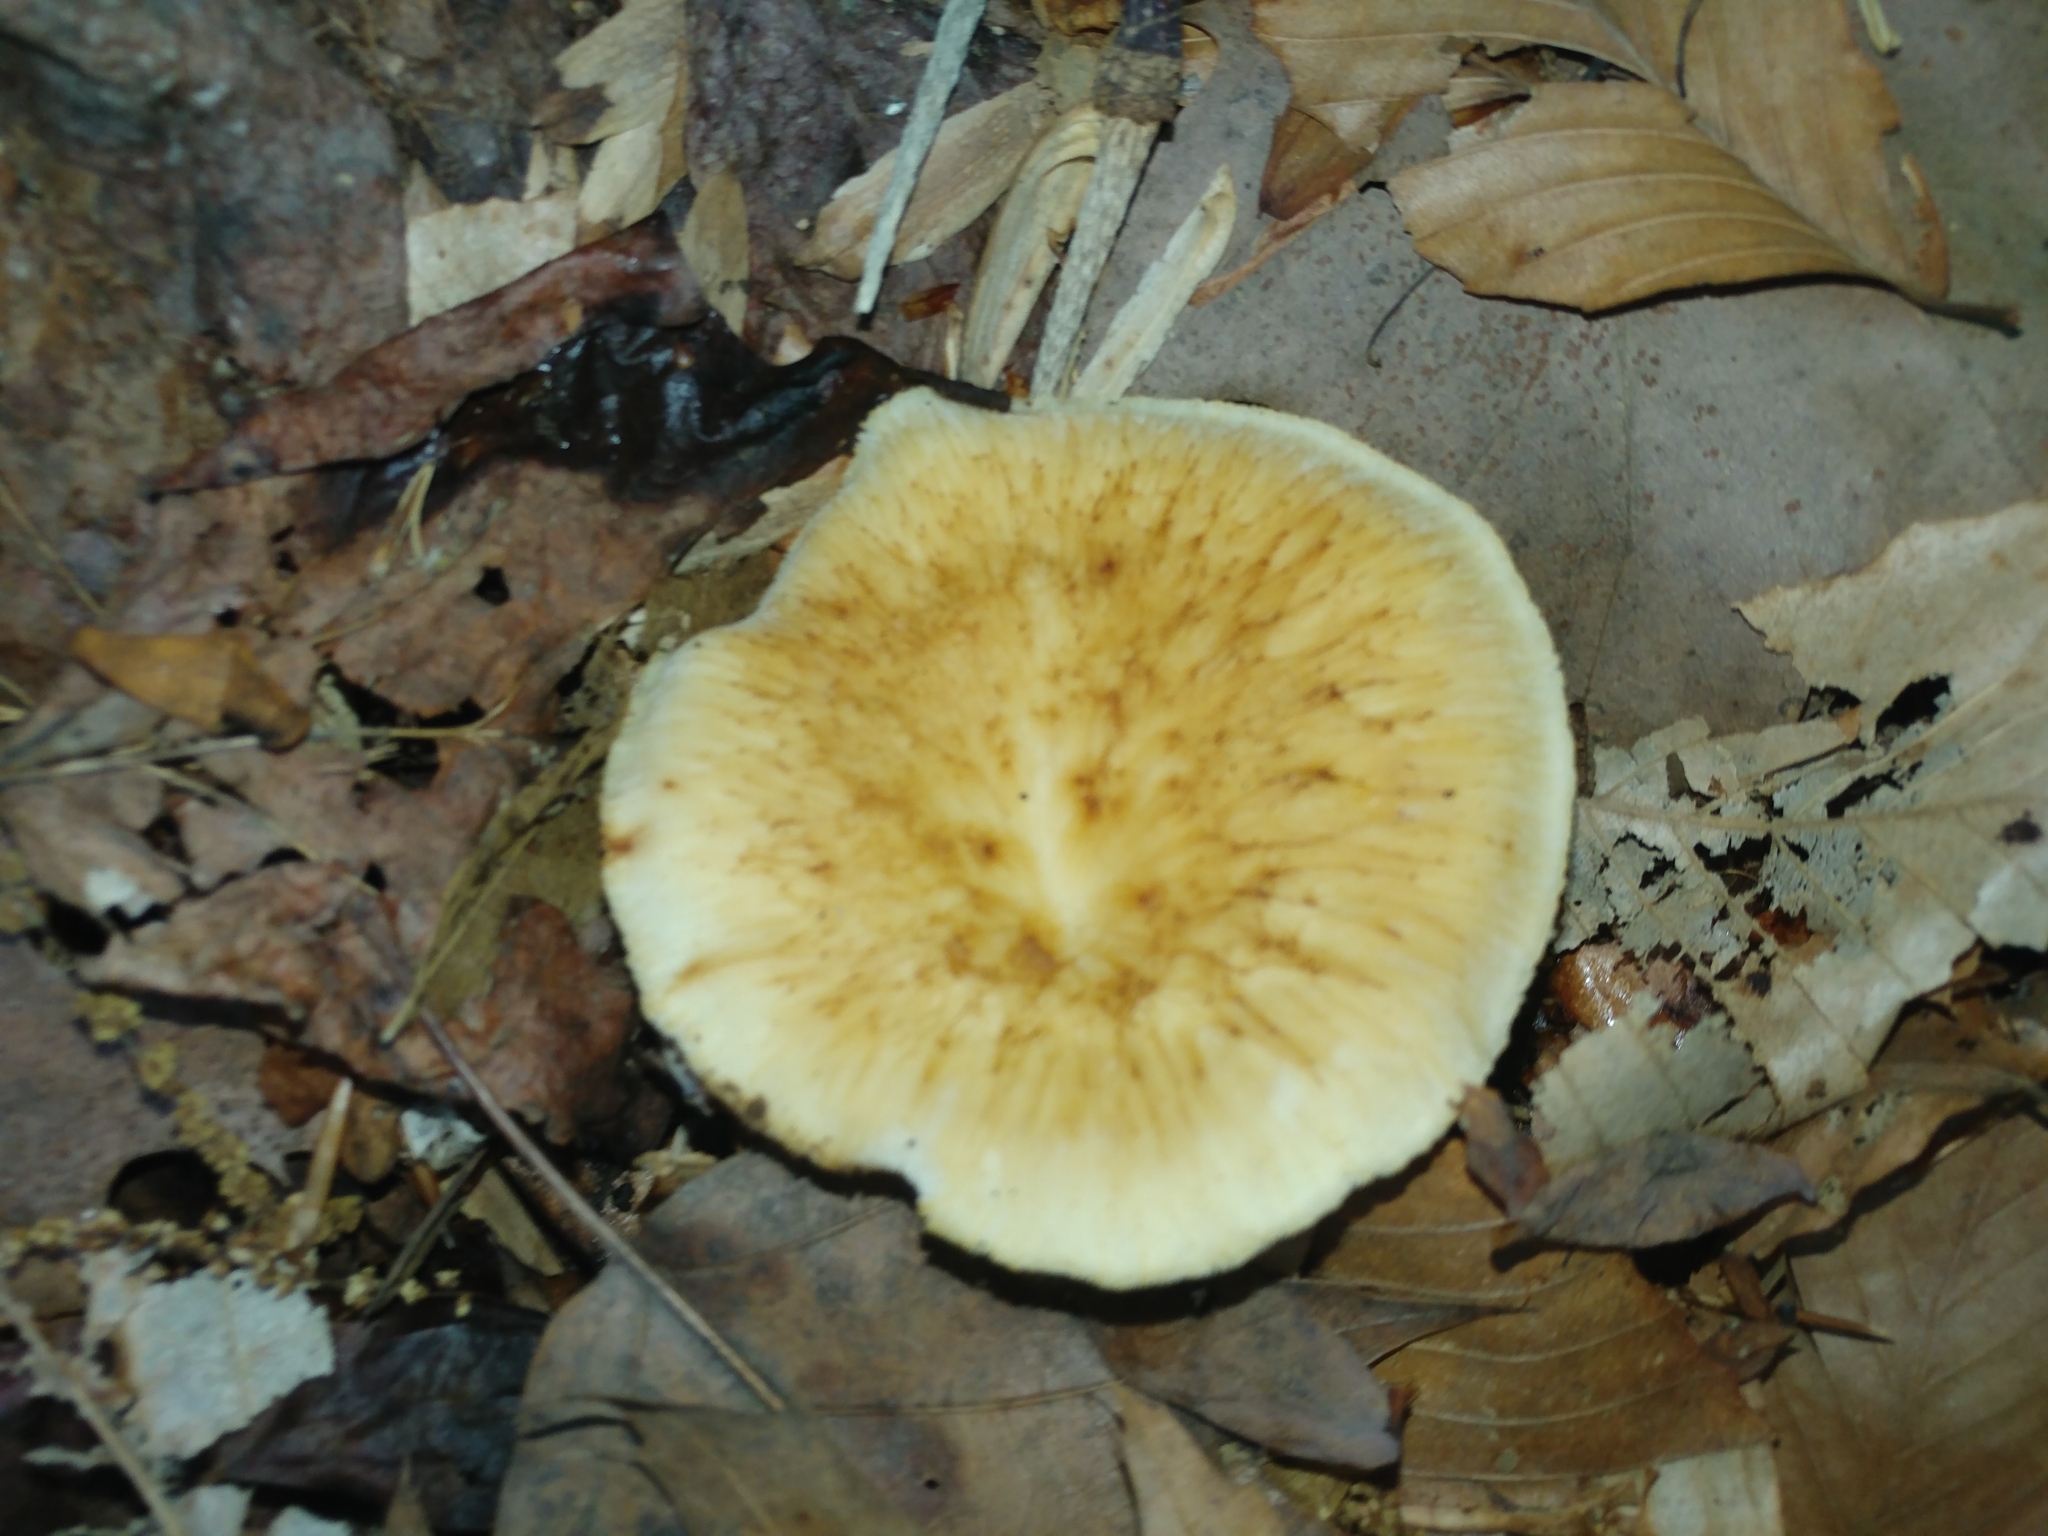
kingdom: Fungi
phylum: Basidiomycota
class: Agaricomycetes
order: Polyporales
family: Polyporaceae
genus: Cerioporus
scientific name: Cerioporus varius
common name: Elegant polypore
